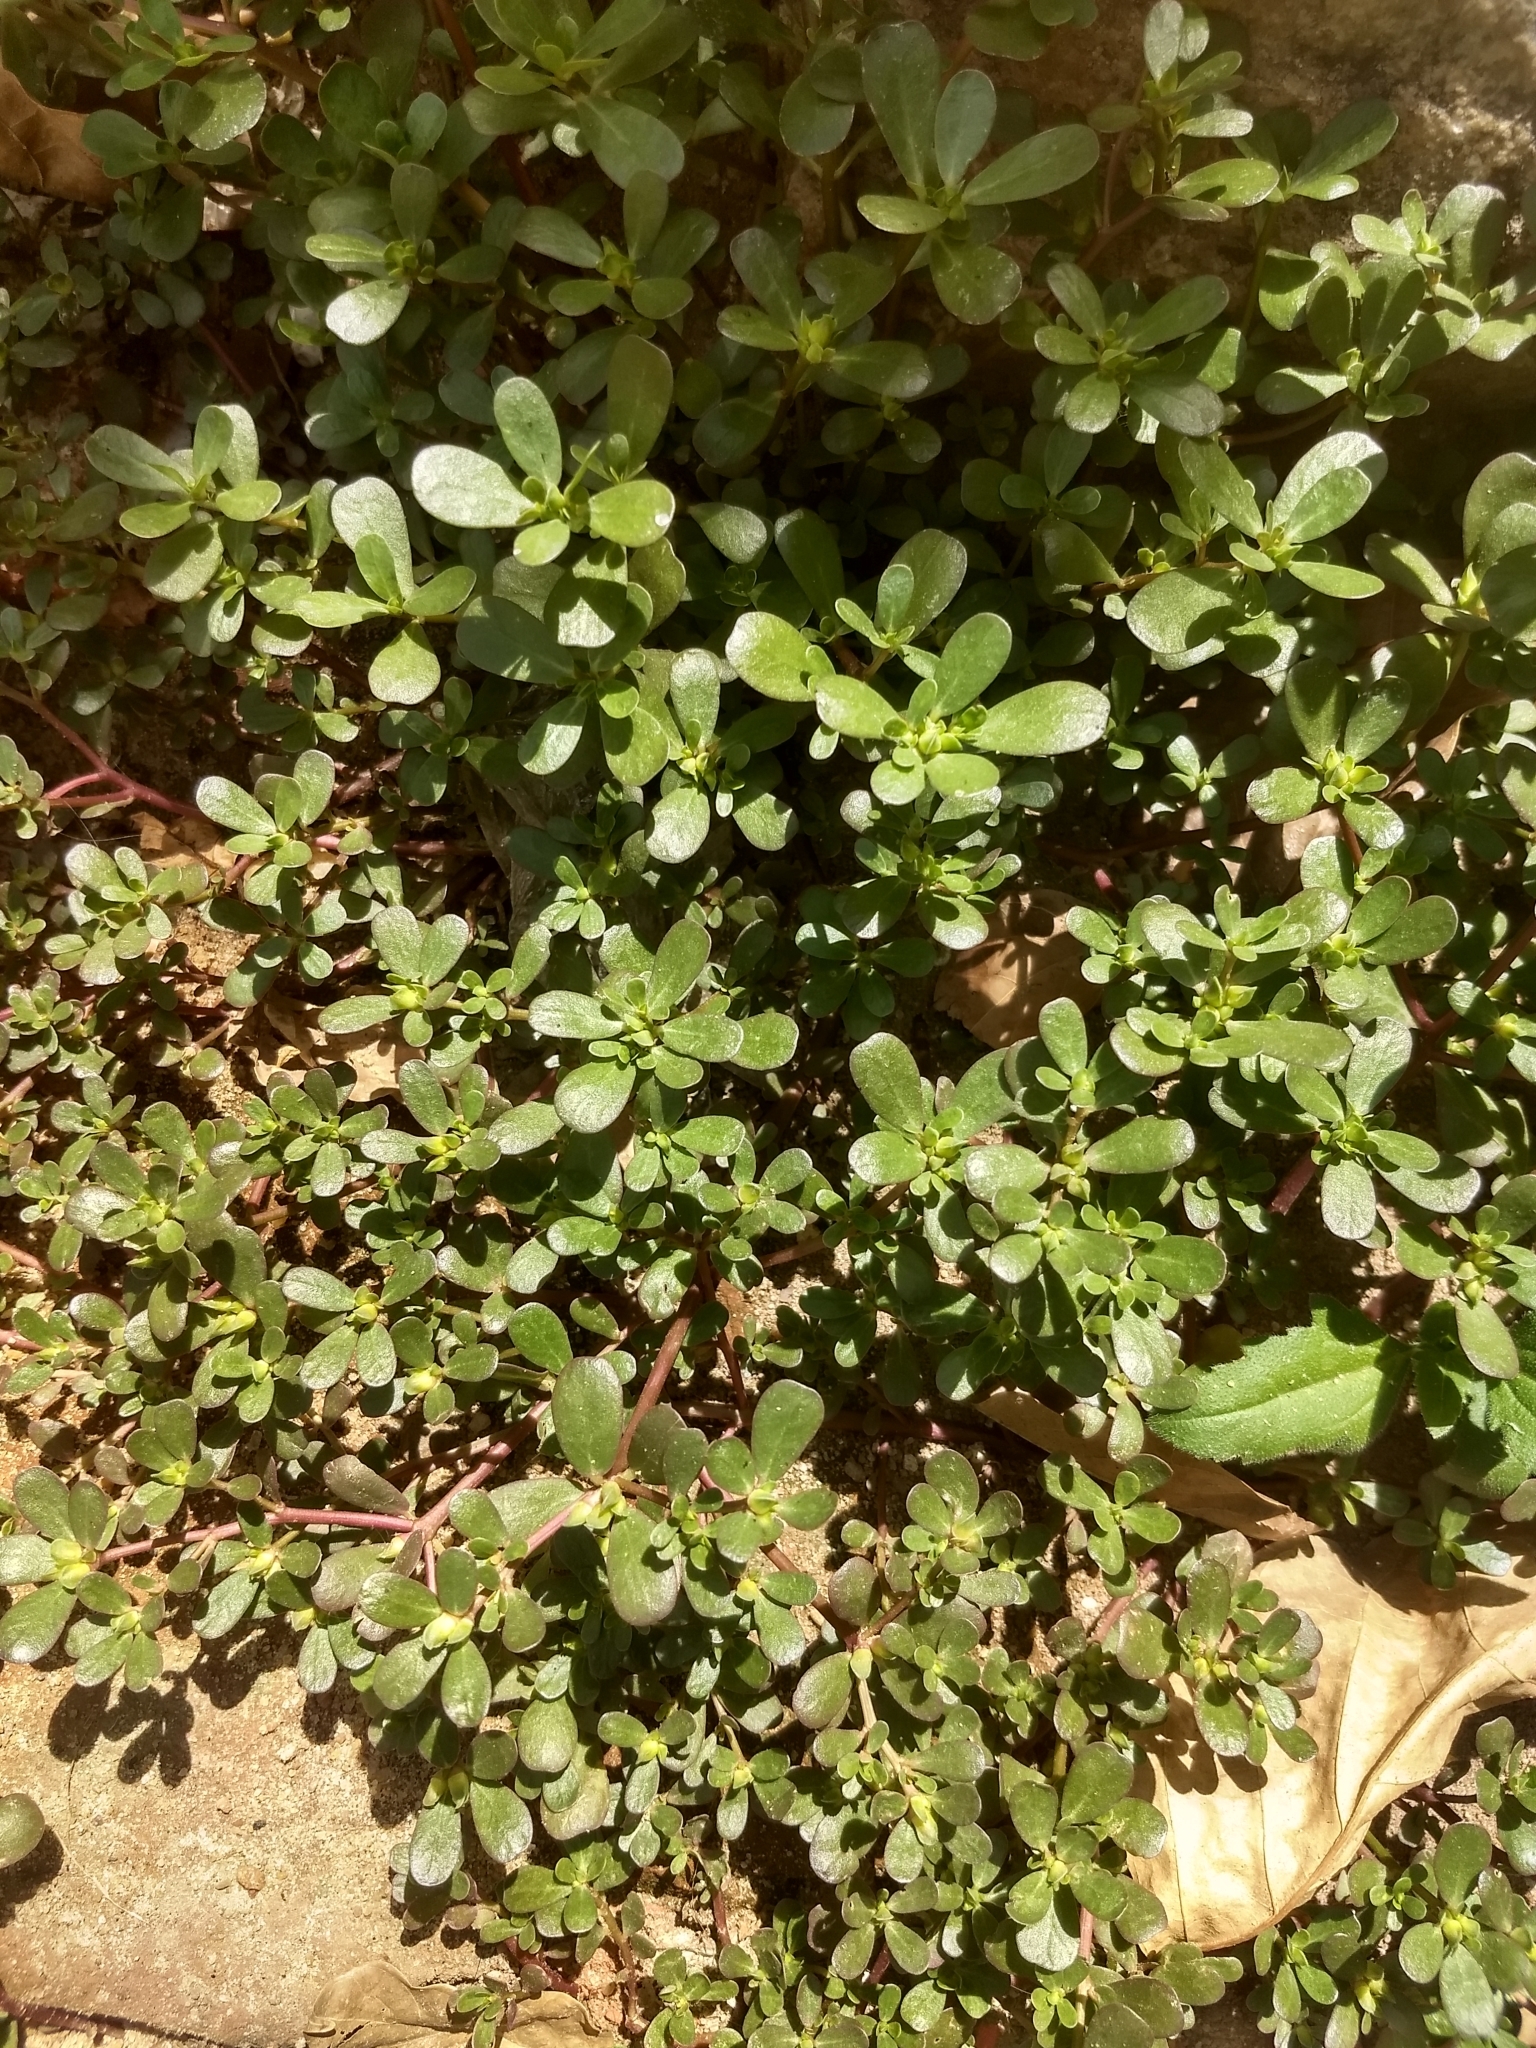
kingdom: Plantae
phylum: Tracheophyta
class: Magnoliopsida
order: Caryophyllales
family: Portulacaceae
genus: Portulaca
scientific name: Portulaca oleracea
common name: Common purslane
